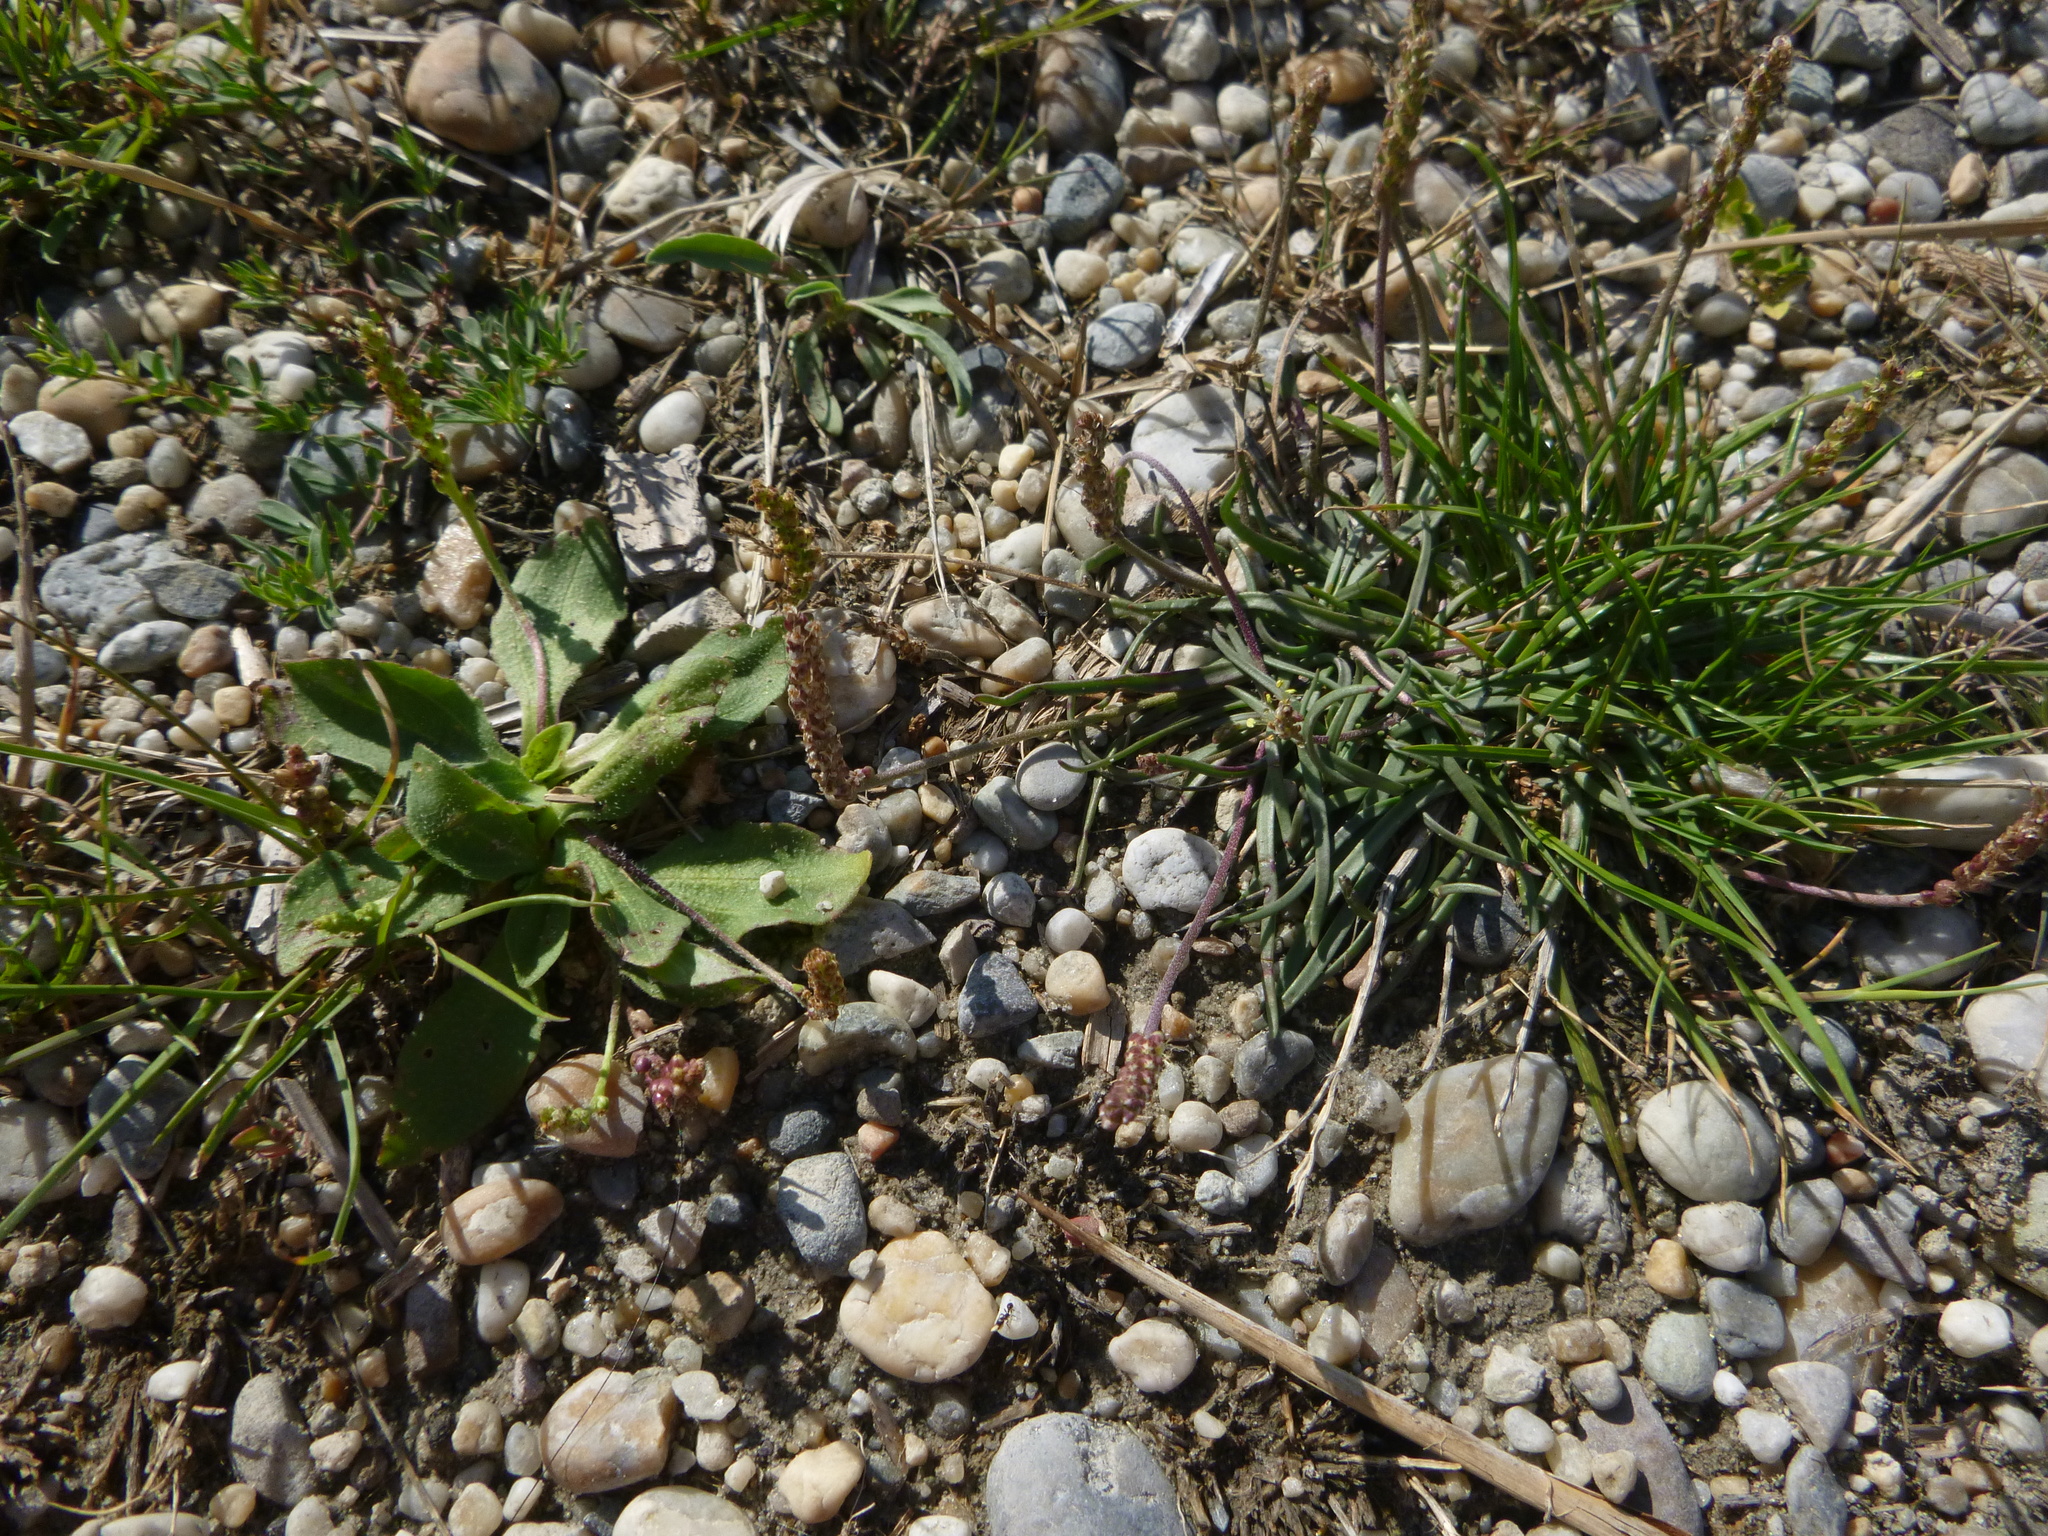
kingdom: Plantae
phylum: Tracheophyta
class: Magnoliopsida
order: Lamiales
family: Plantaginaceae
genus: Plantago
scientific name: Plantago maritima
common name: Sea plantain
